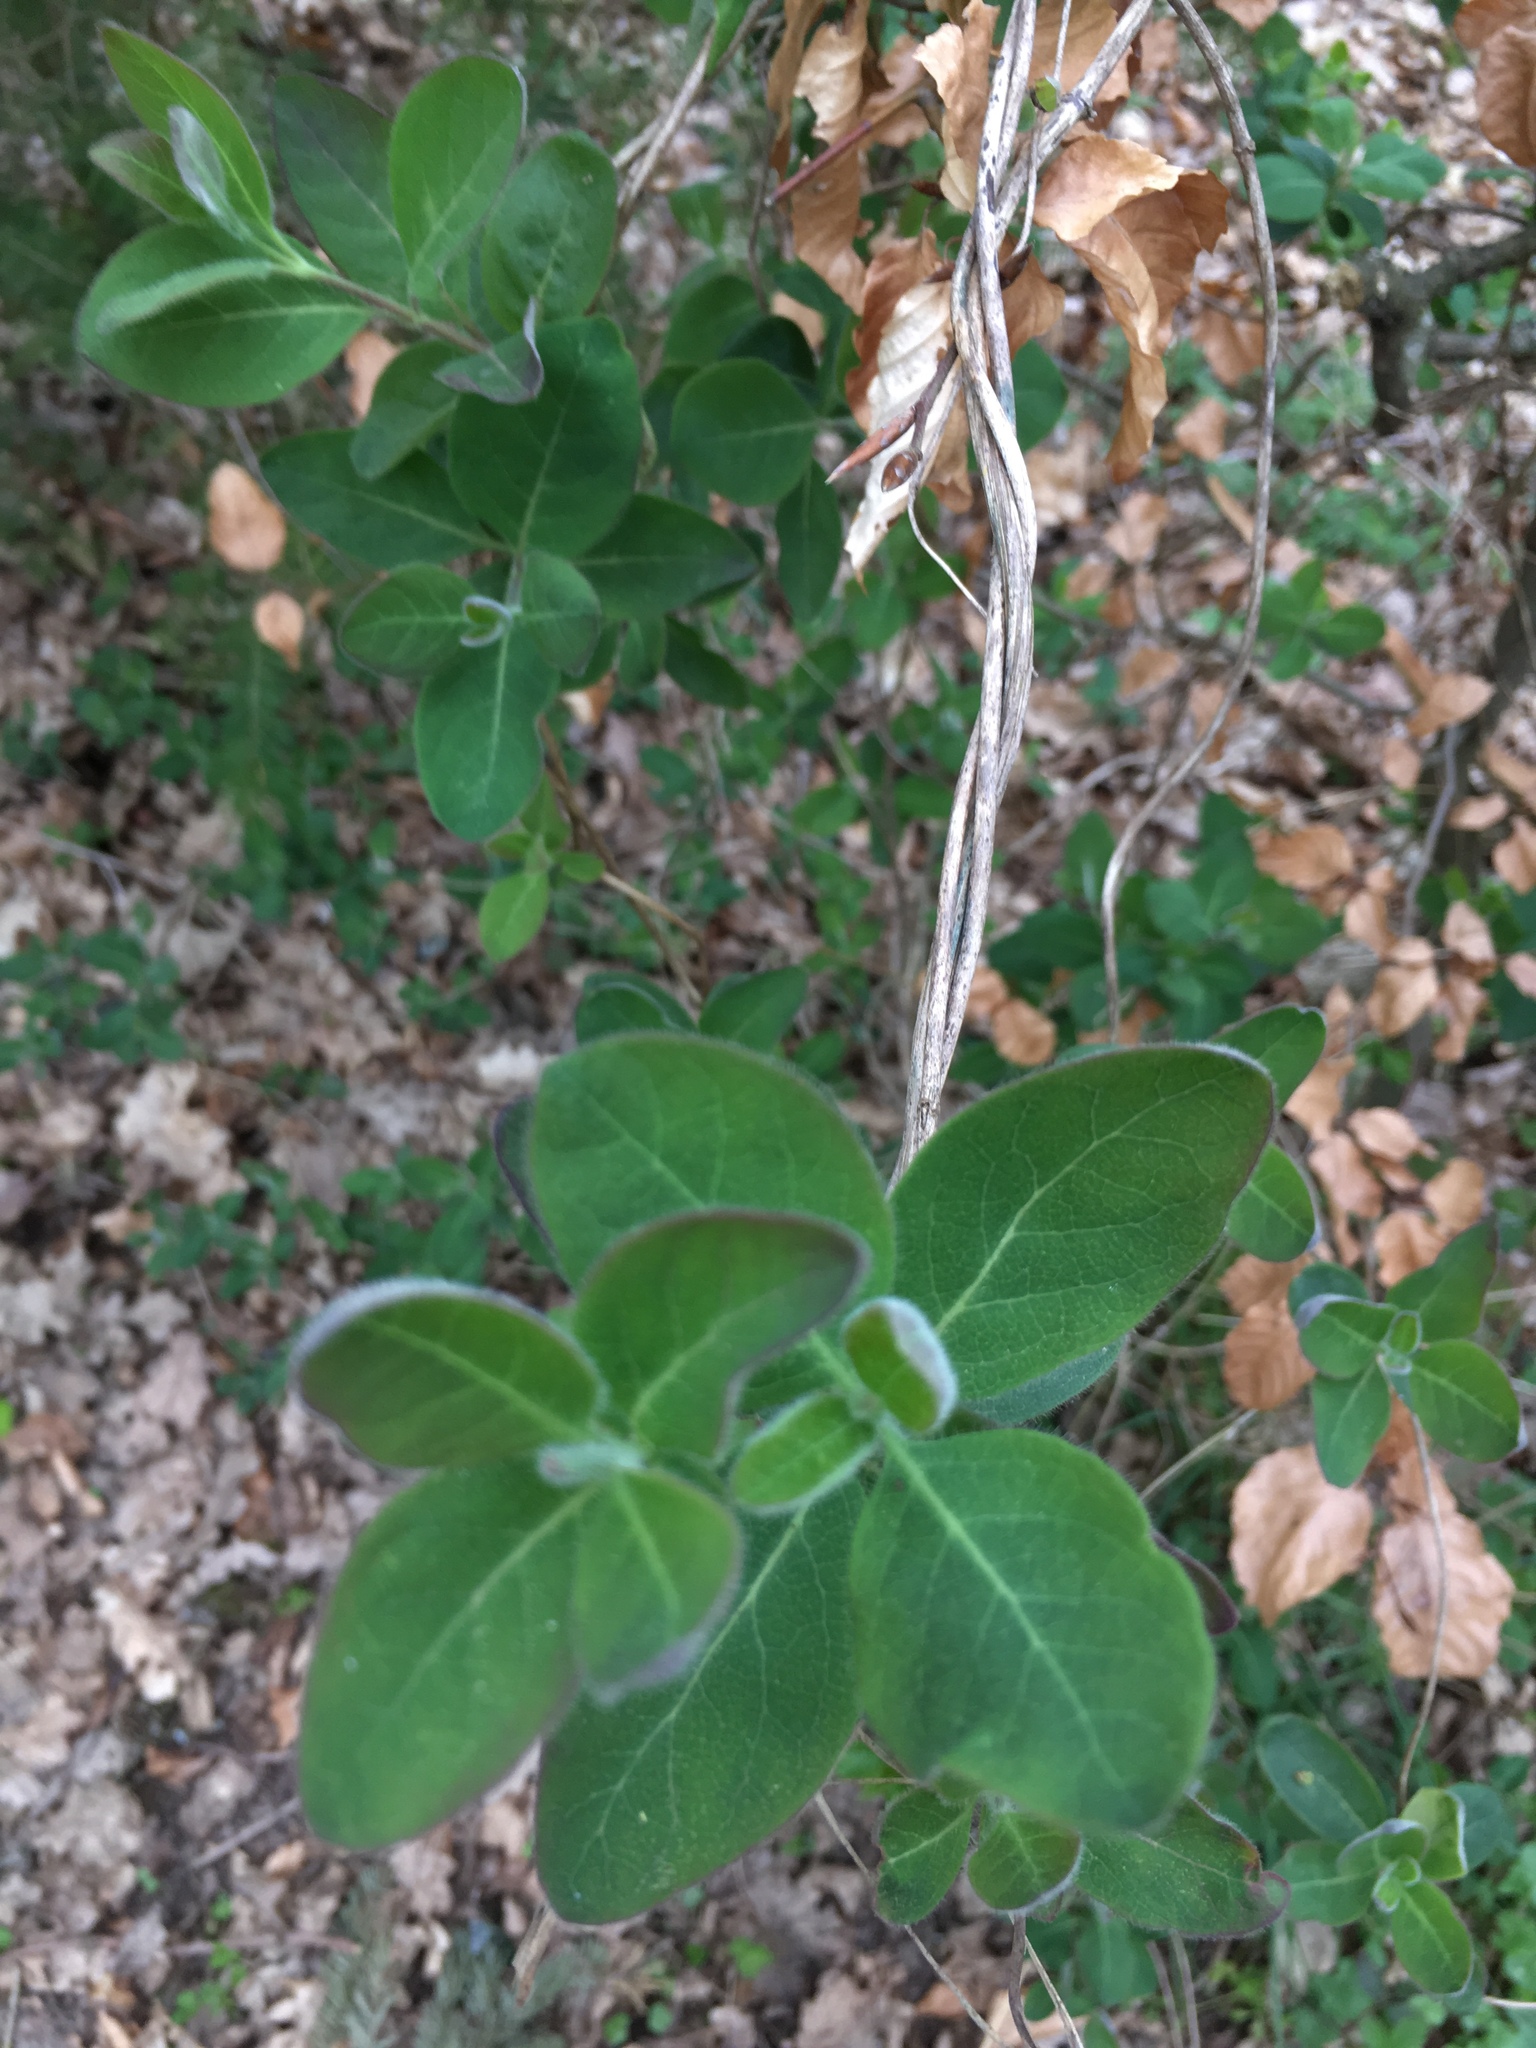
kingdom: Plantae
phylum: Tracheophyta
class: Magnoliopsida
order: Dipsacales
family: Caprifoliaceae
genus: Lonicera
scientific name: Lonicera periclymenum
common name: European honeysuckle
